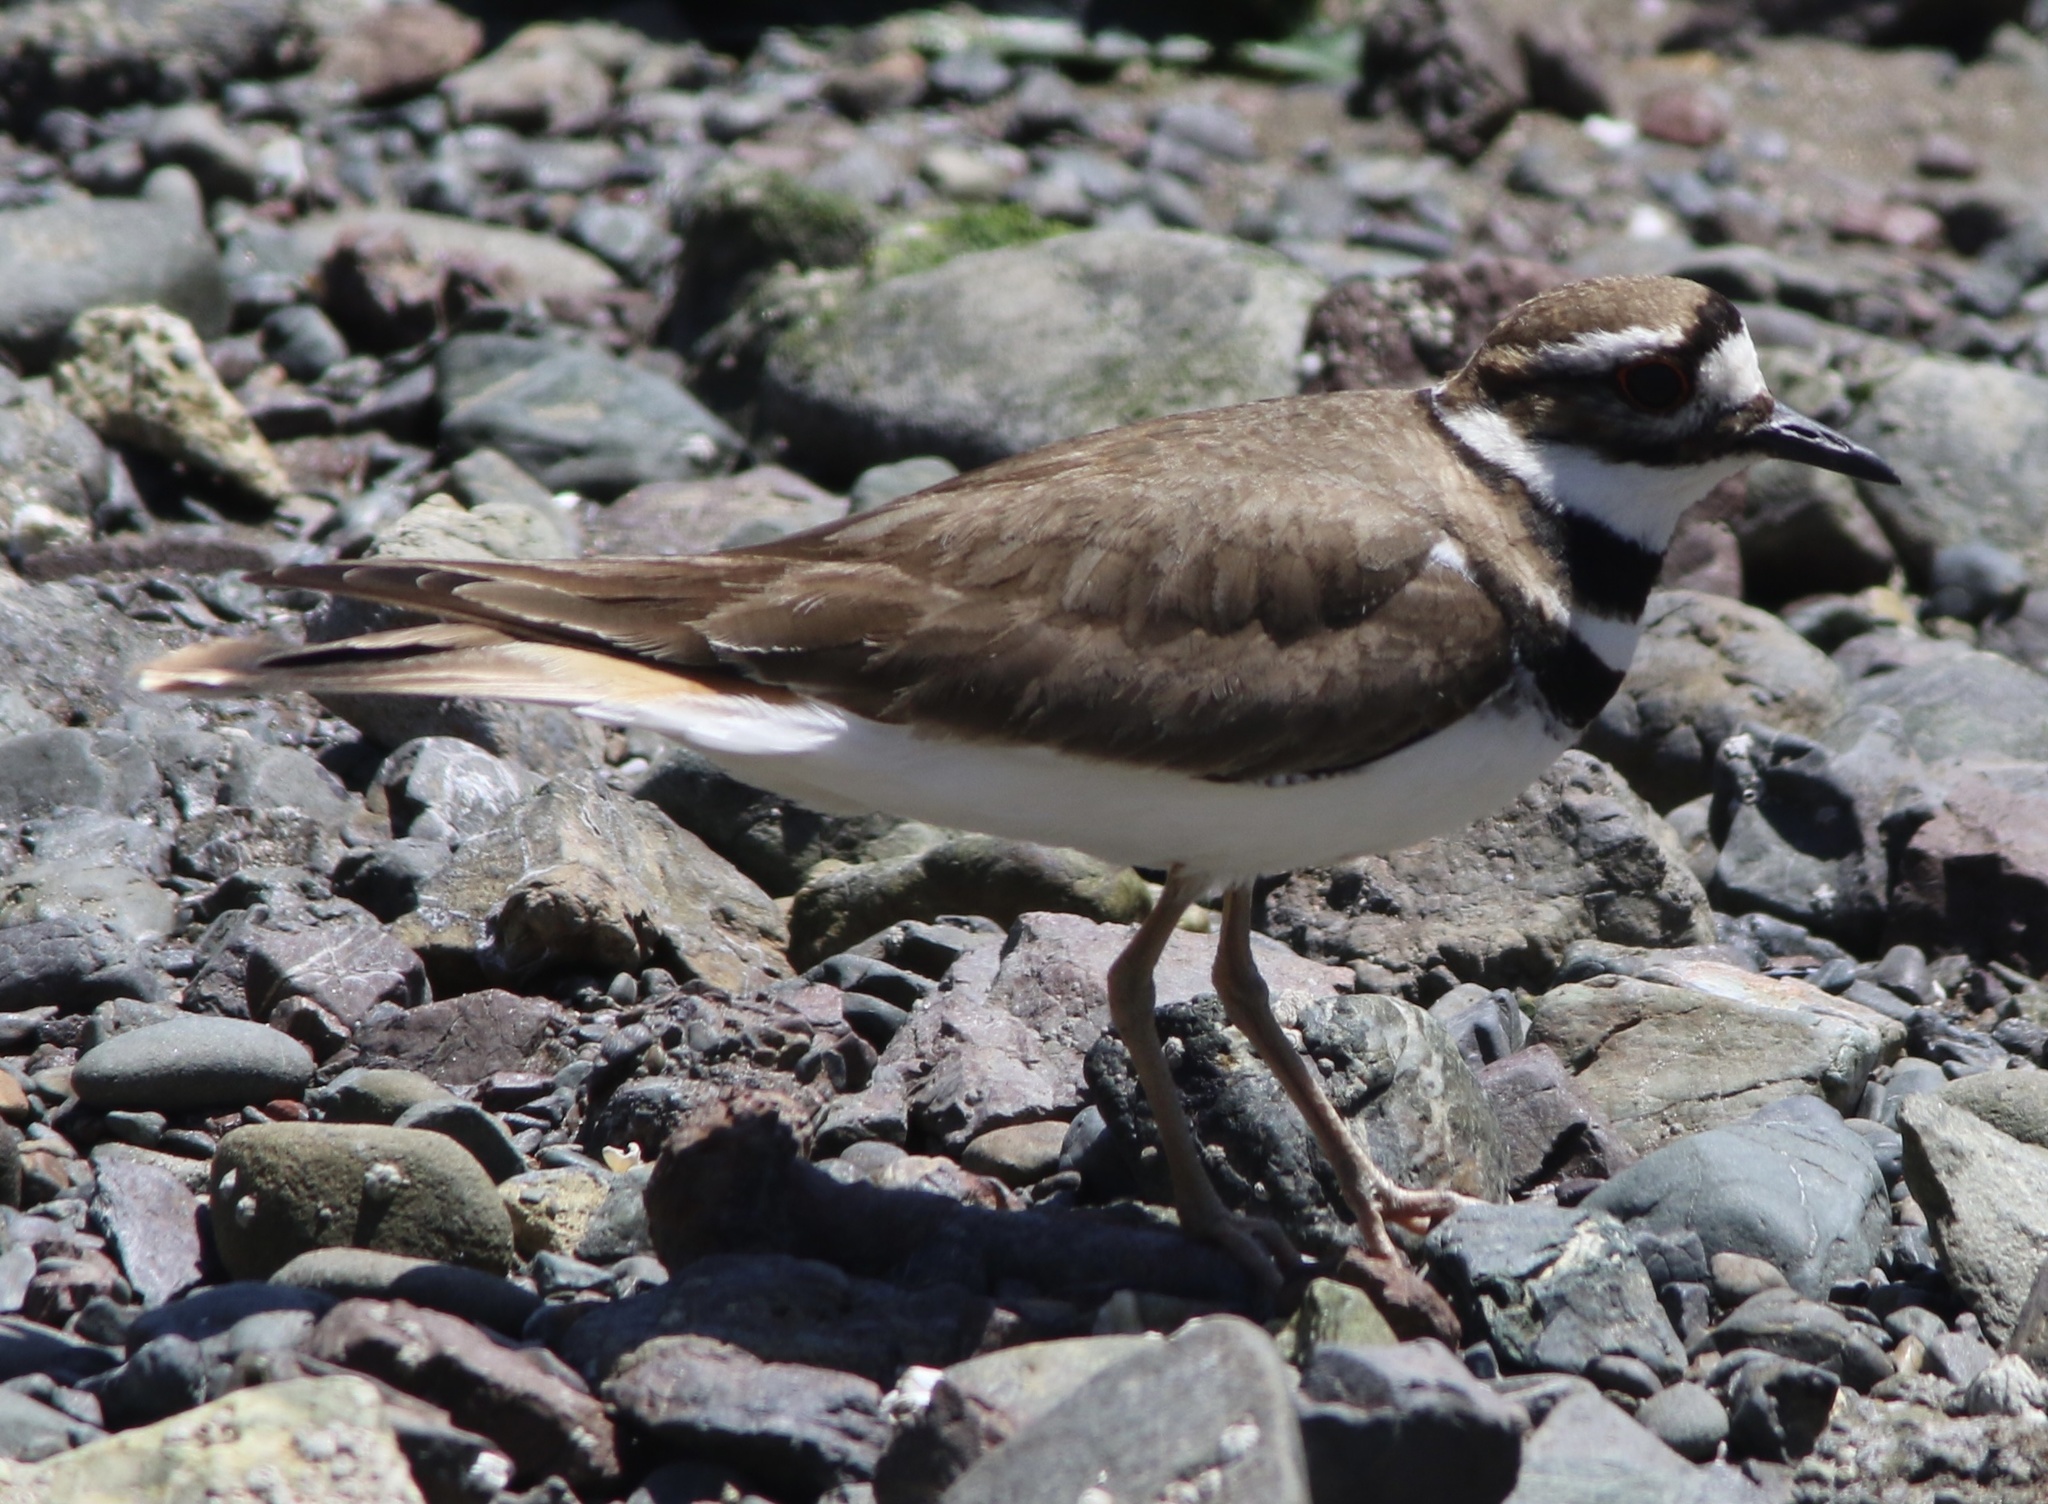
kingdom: Animalia
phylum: Chordata
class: Aves
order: Charadriiformes
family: Charadriidae
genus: Charadrius
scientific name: Charadrius vociferus
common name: Killdeer
